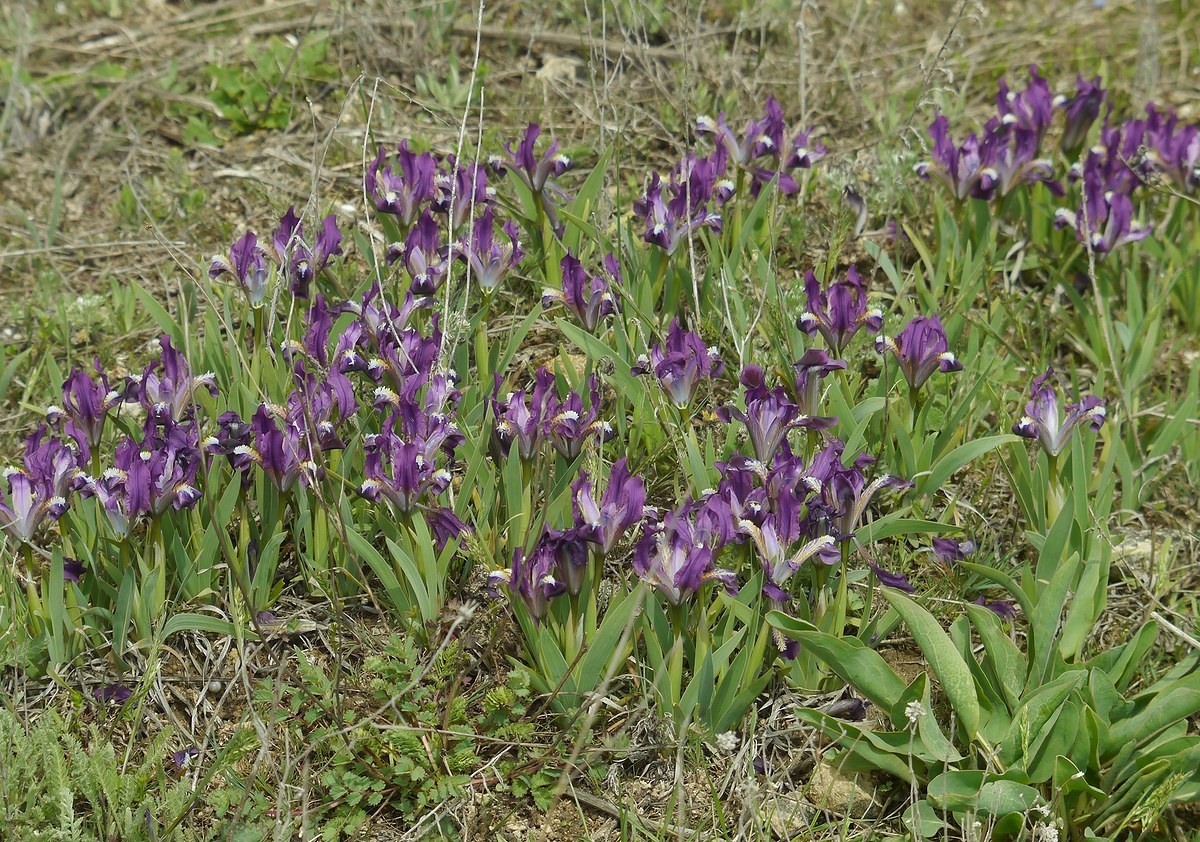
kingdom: Plantae
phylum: Tracheophyta
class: Liliopsida
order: Asparagales
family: Iridaceae
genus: Iris
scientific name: Iris pumila
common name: Dwarf iris
